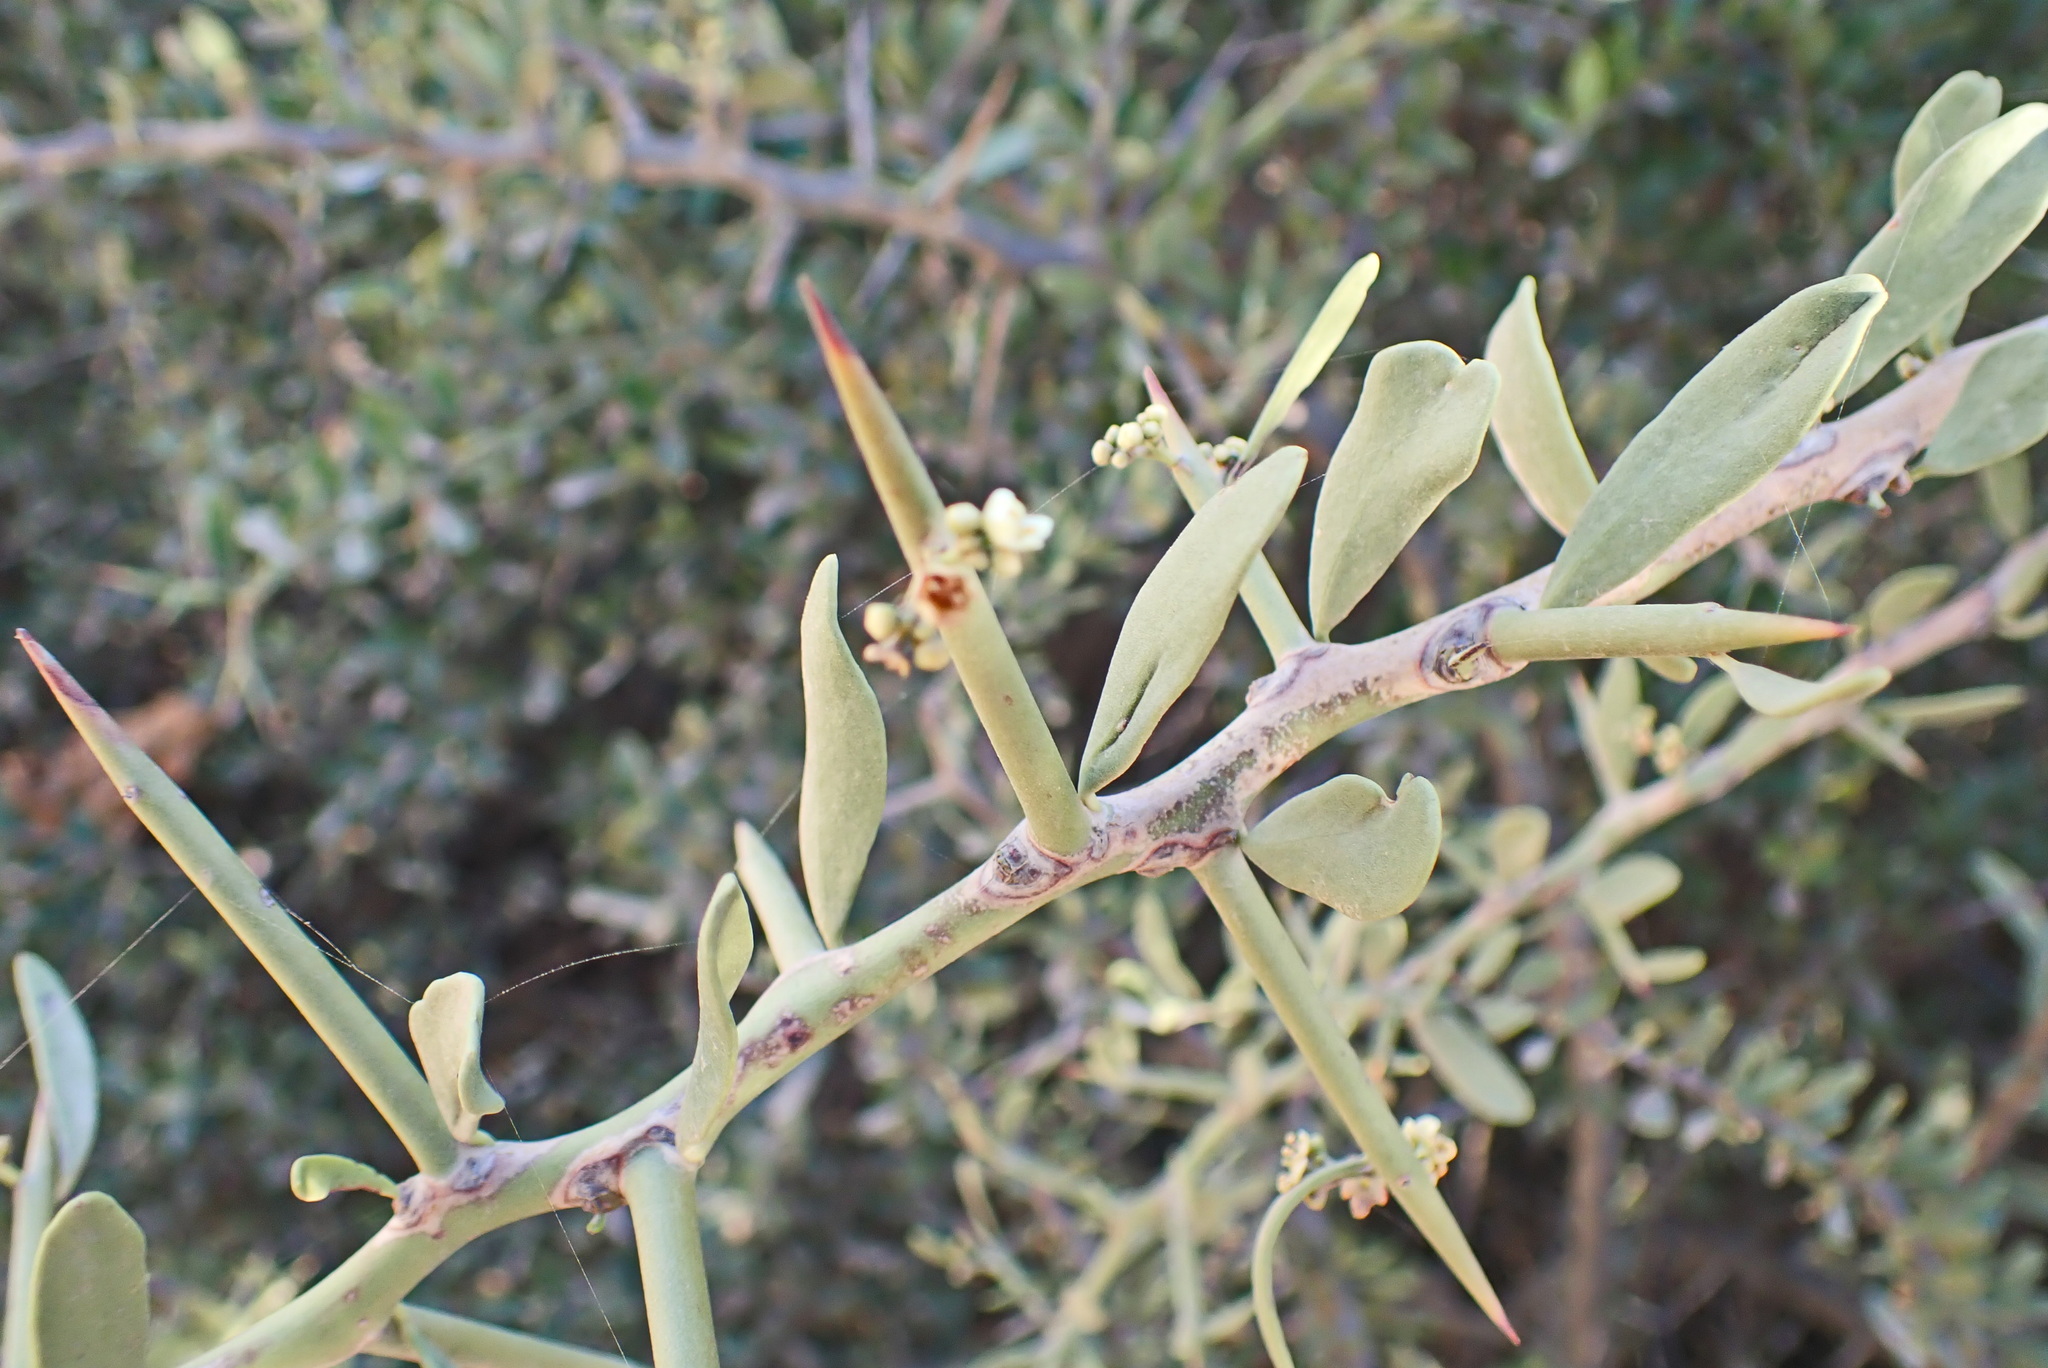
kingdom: Plantae
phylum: Tracheophyta
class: Magnoliopsida
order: Celastrales
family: Celastraceae
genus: Gymnosporia
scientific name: Gymnosporia buxifolia
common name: Common spike-thorn
